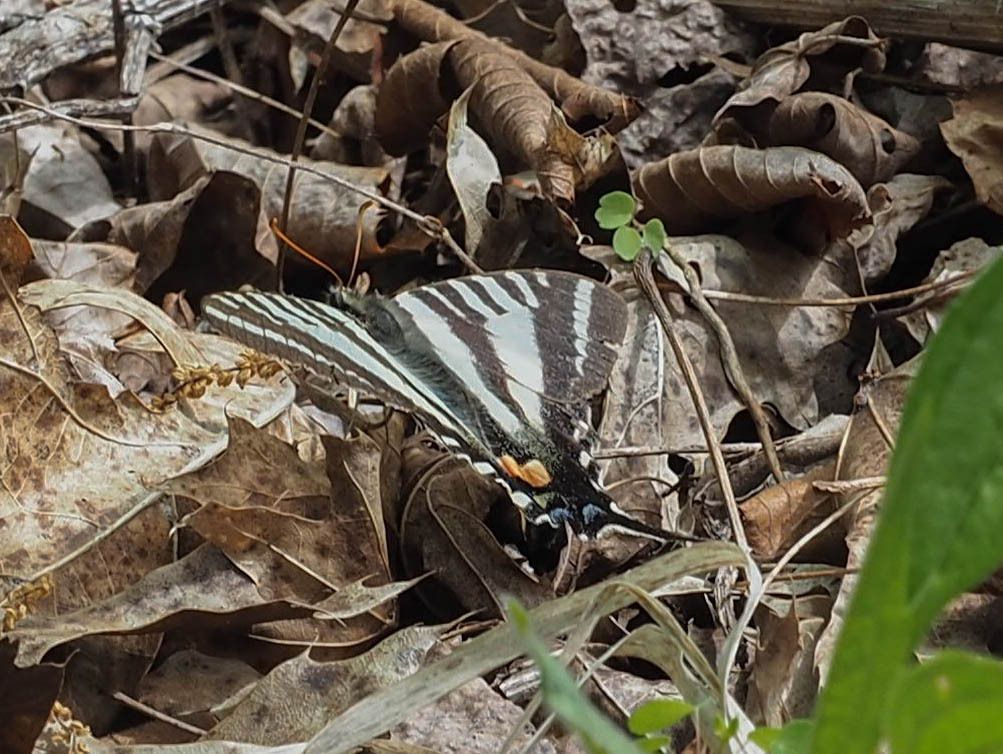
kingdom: Animalia
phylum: Arthropoda
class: Insecta
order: Lepidoptera
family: Papilionidae
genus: Protographium
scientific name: Protographium marcellus
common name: Zebra swallowtail
